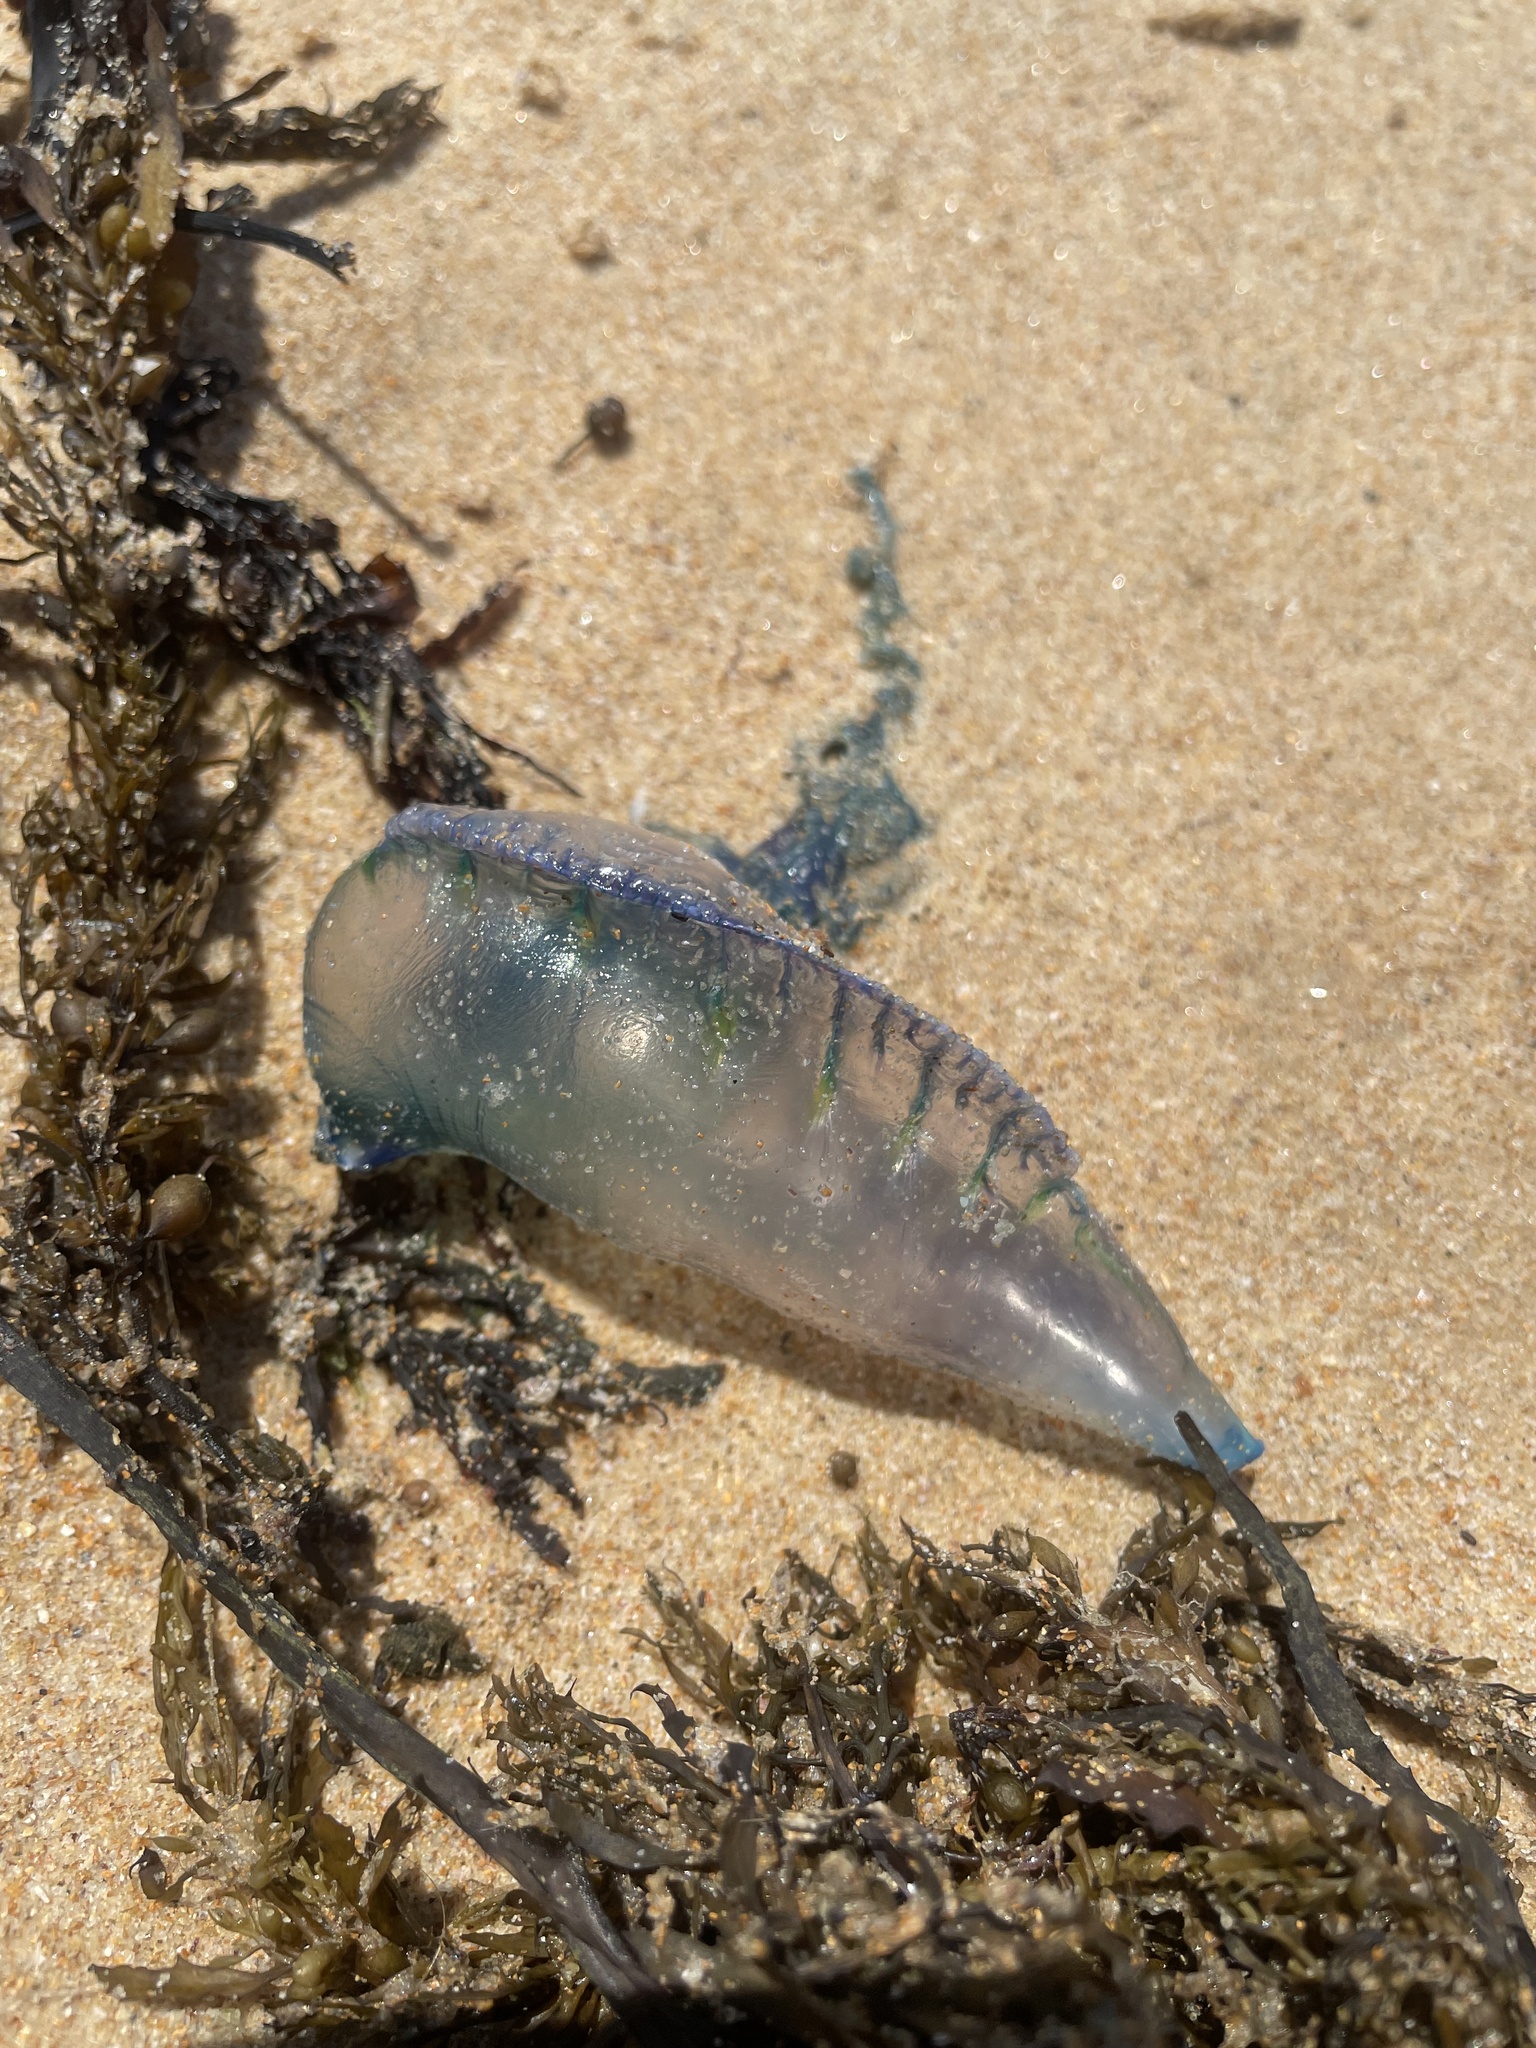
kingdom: Animalia
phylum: Cnidaria
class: Hydrozoa
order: Siphonophorae
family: Physaliidae
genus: Physalia
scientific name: Physalia physalis
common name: Portuguese man-of-war
